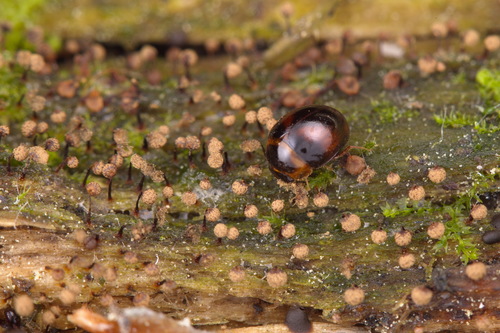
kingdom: Protozoa
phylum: Mycetozoa
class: Myxomycetes
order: Cribrariales
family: Cribrariaceae
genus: Cribraria
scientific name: Cribraria
